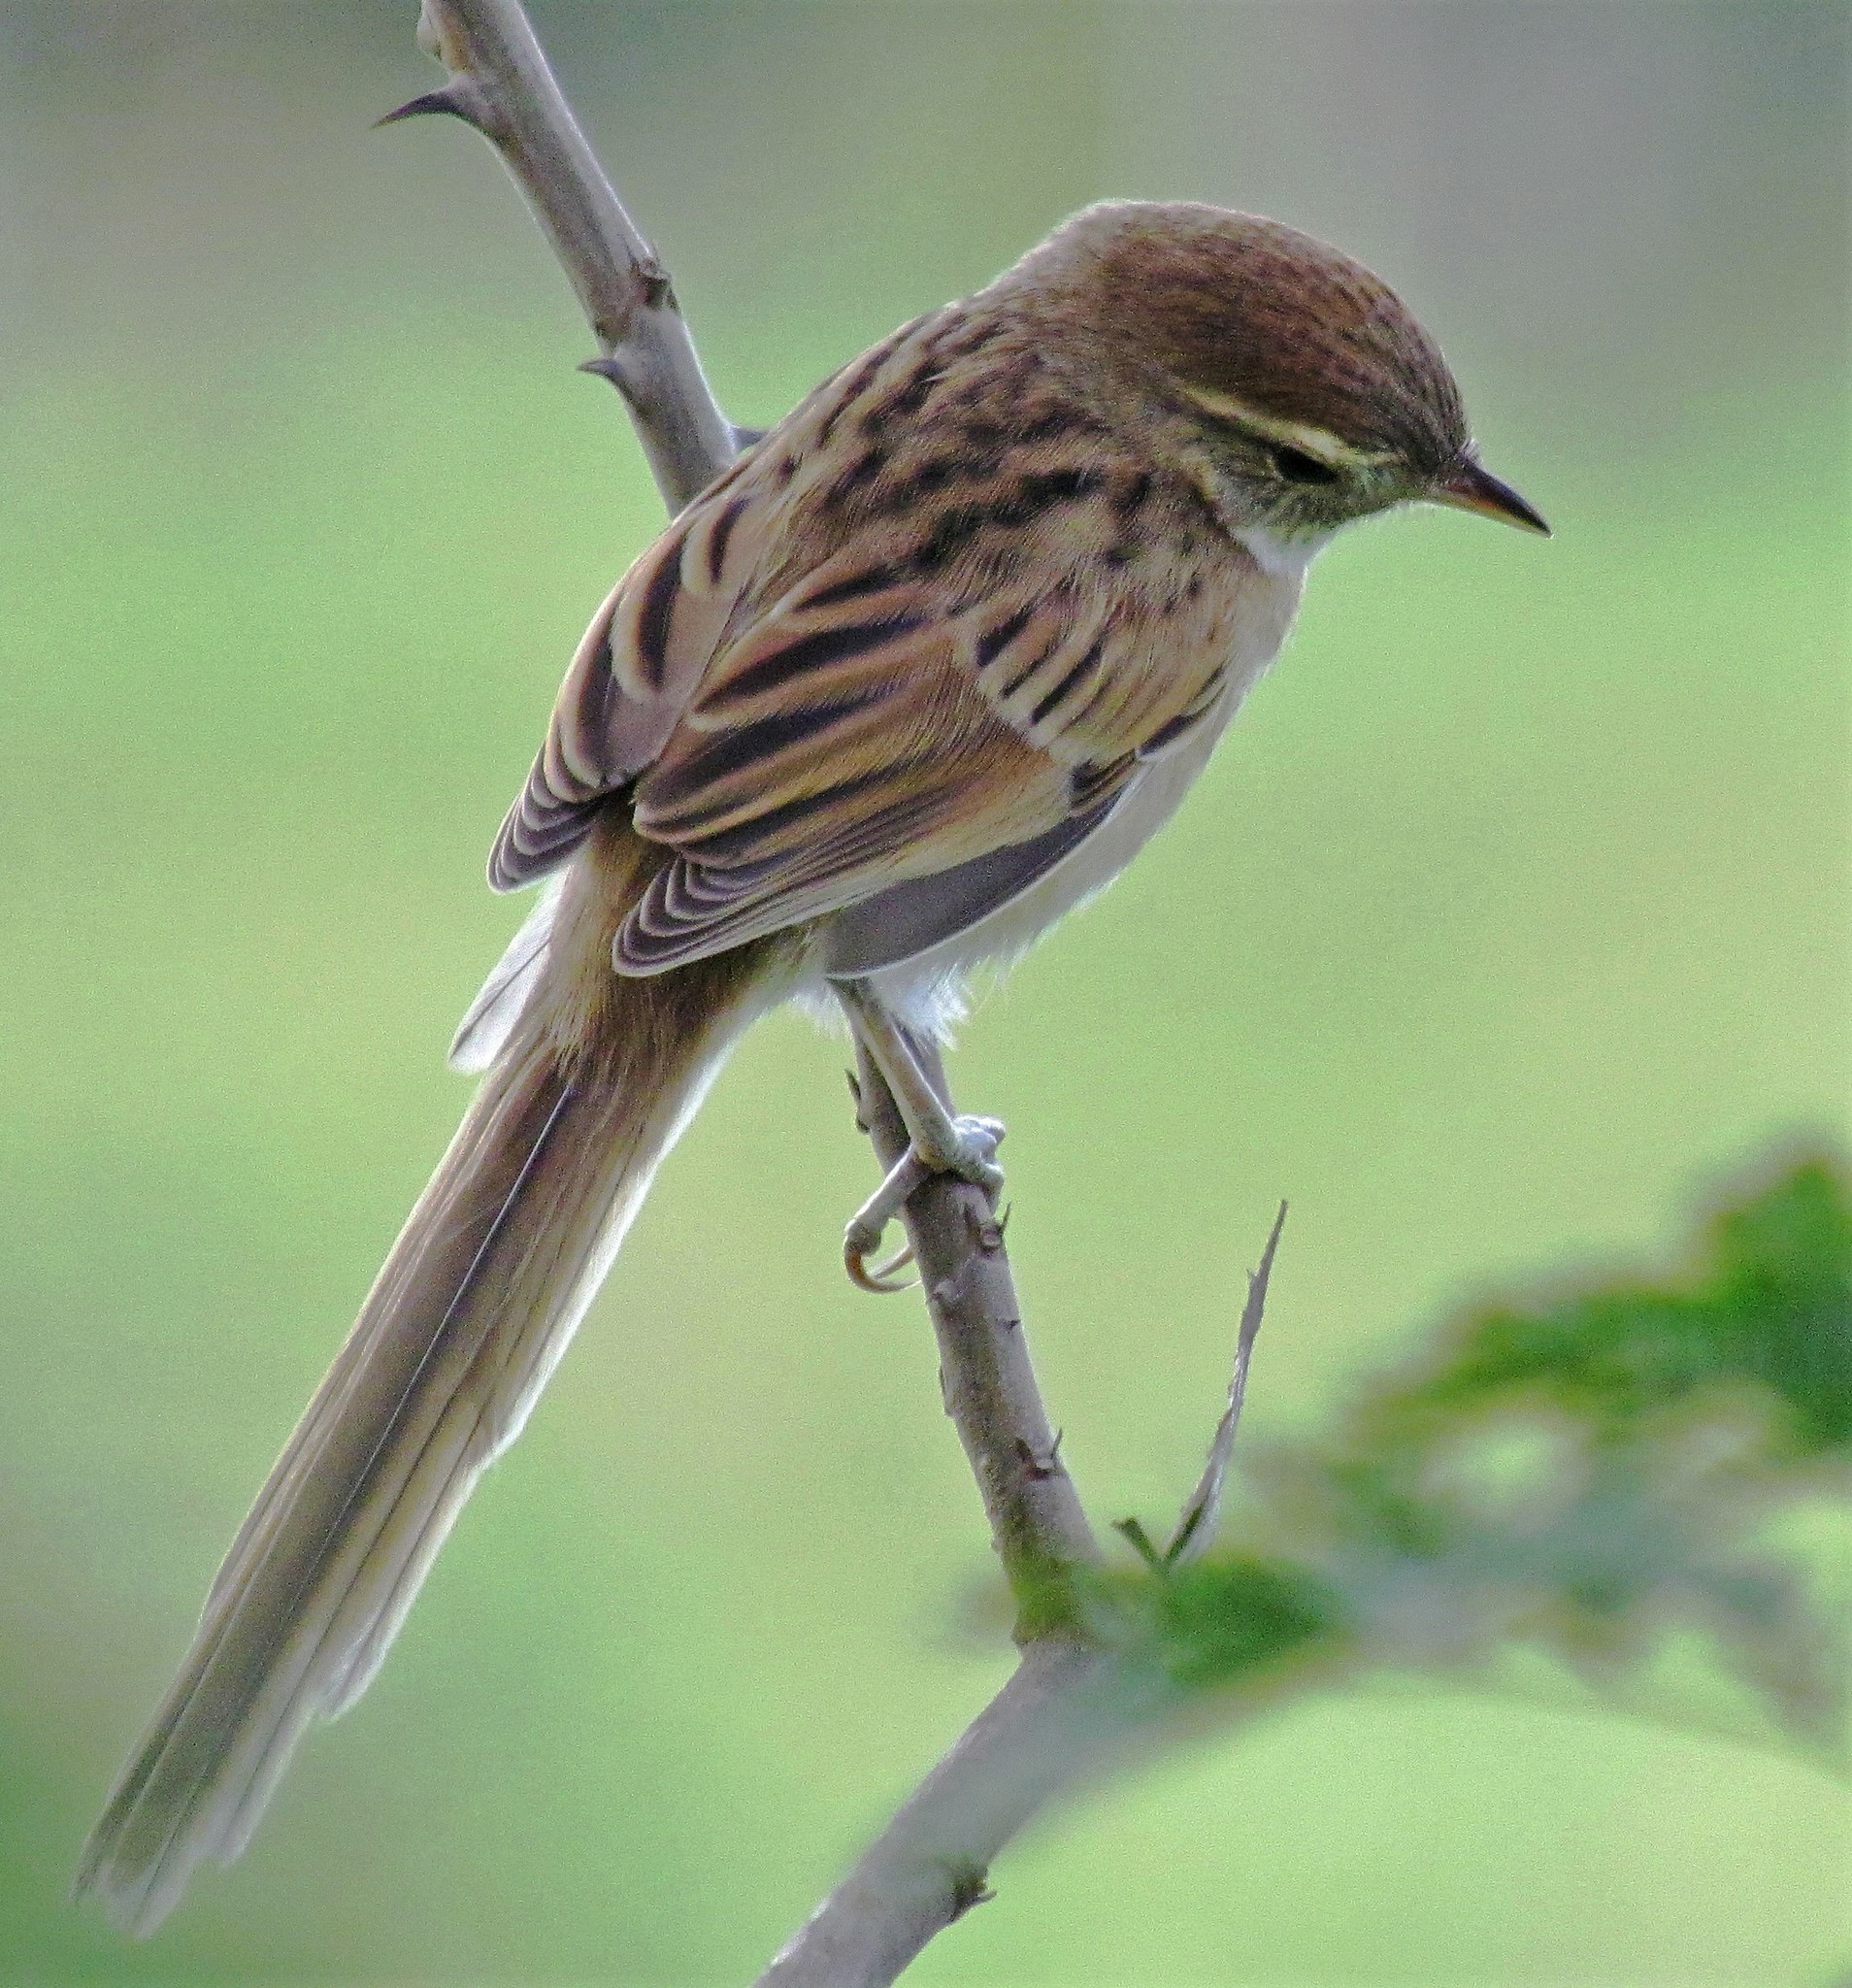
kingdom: Animalia
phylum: Chordata
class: Aves
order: Passeriformes
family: Furnariidae
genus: Schoeniophylax
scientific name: Schoeniophylax phryganophilus
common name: Chotoy spinetail
